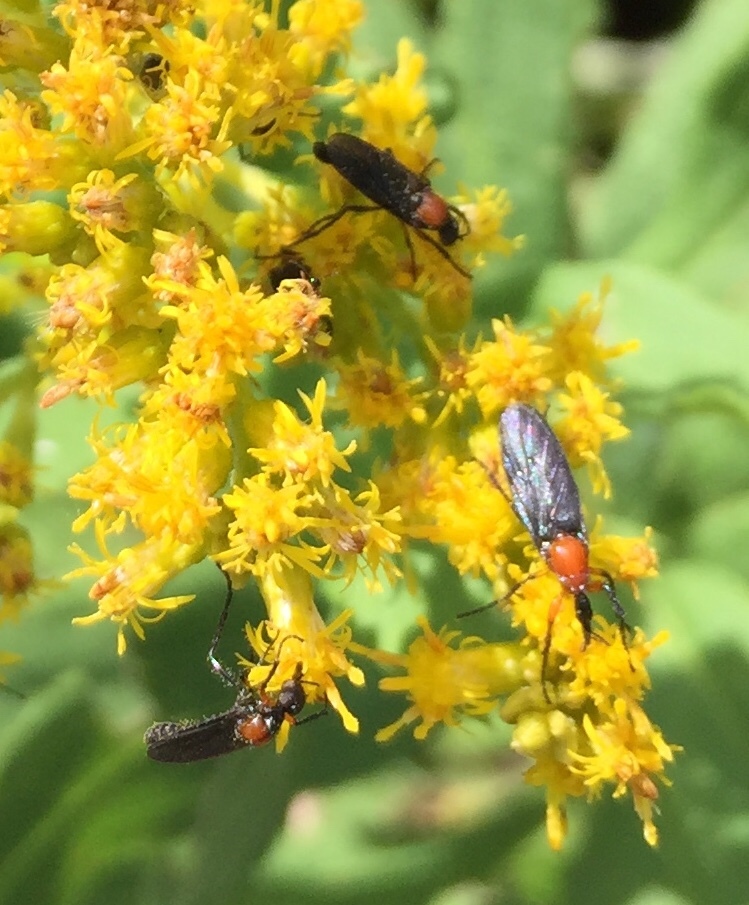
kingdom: Animalia
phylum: Arthropoda
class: Insecta
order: Diptera
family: Bibionidae
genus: Dilophus
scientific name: Dilophus spinipes
